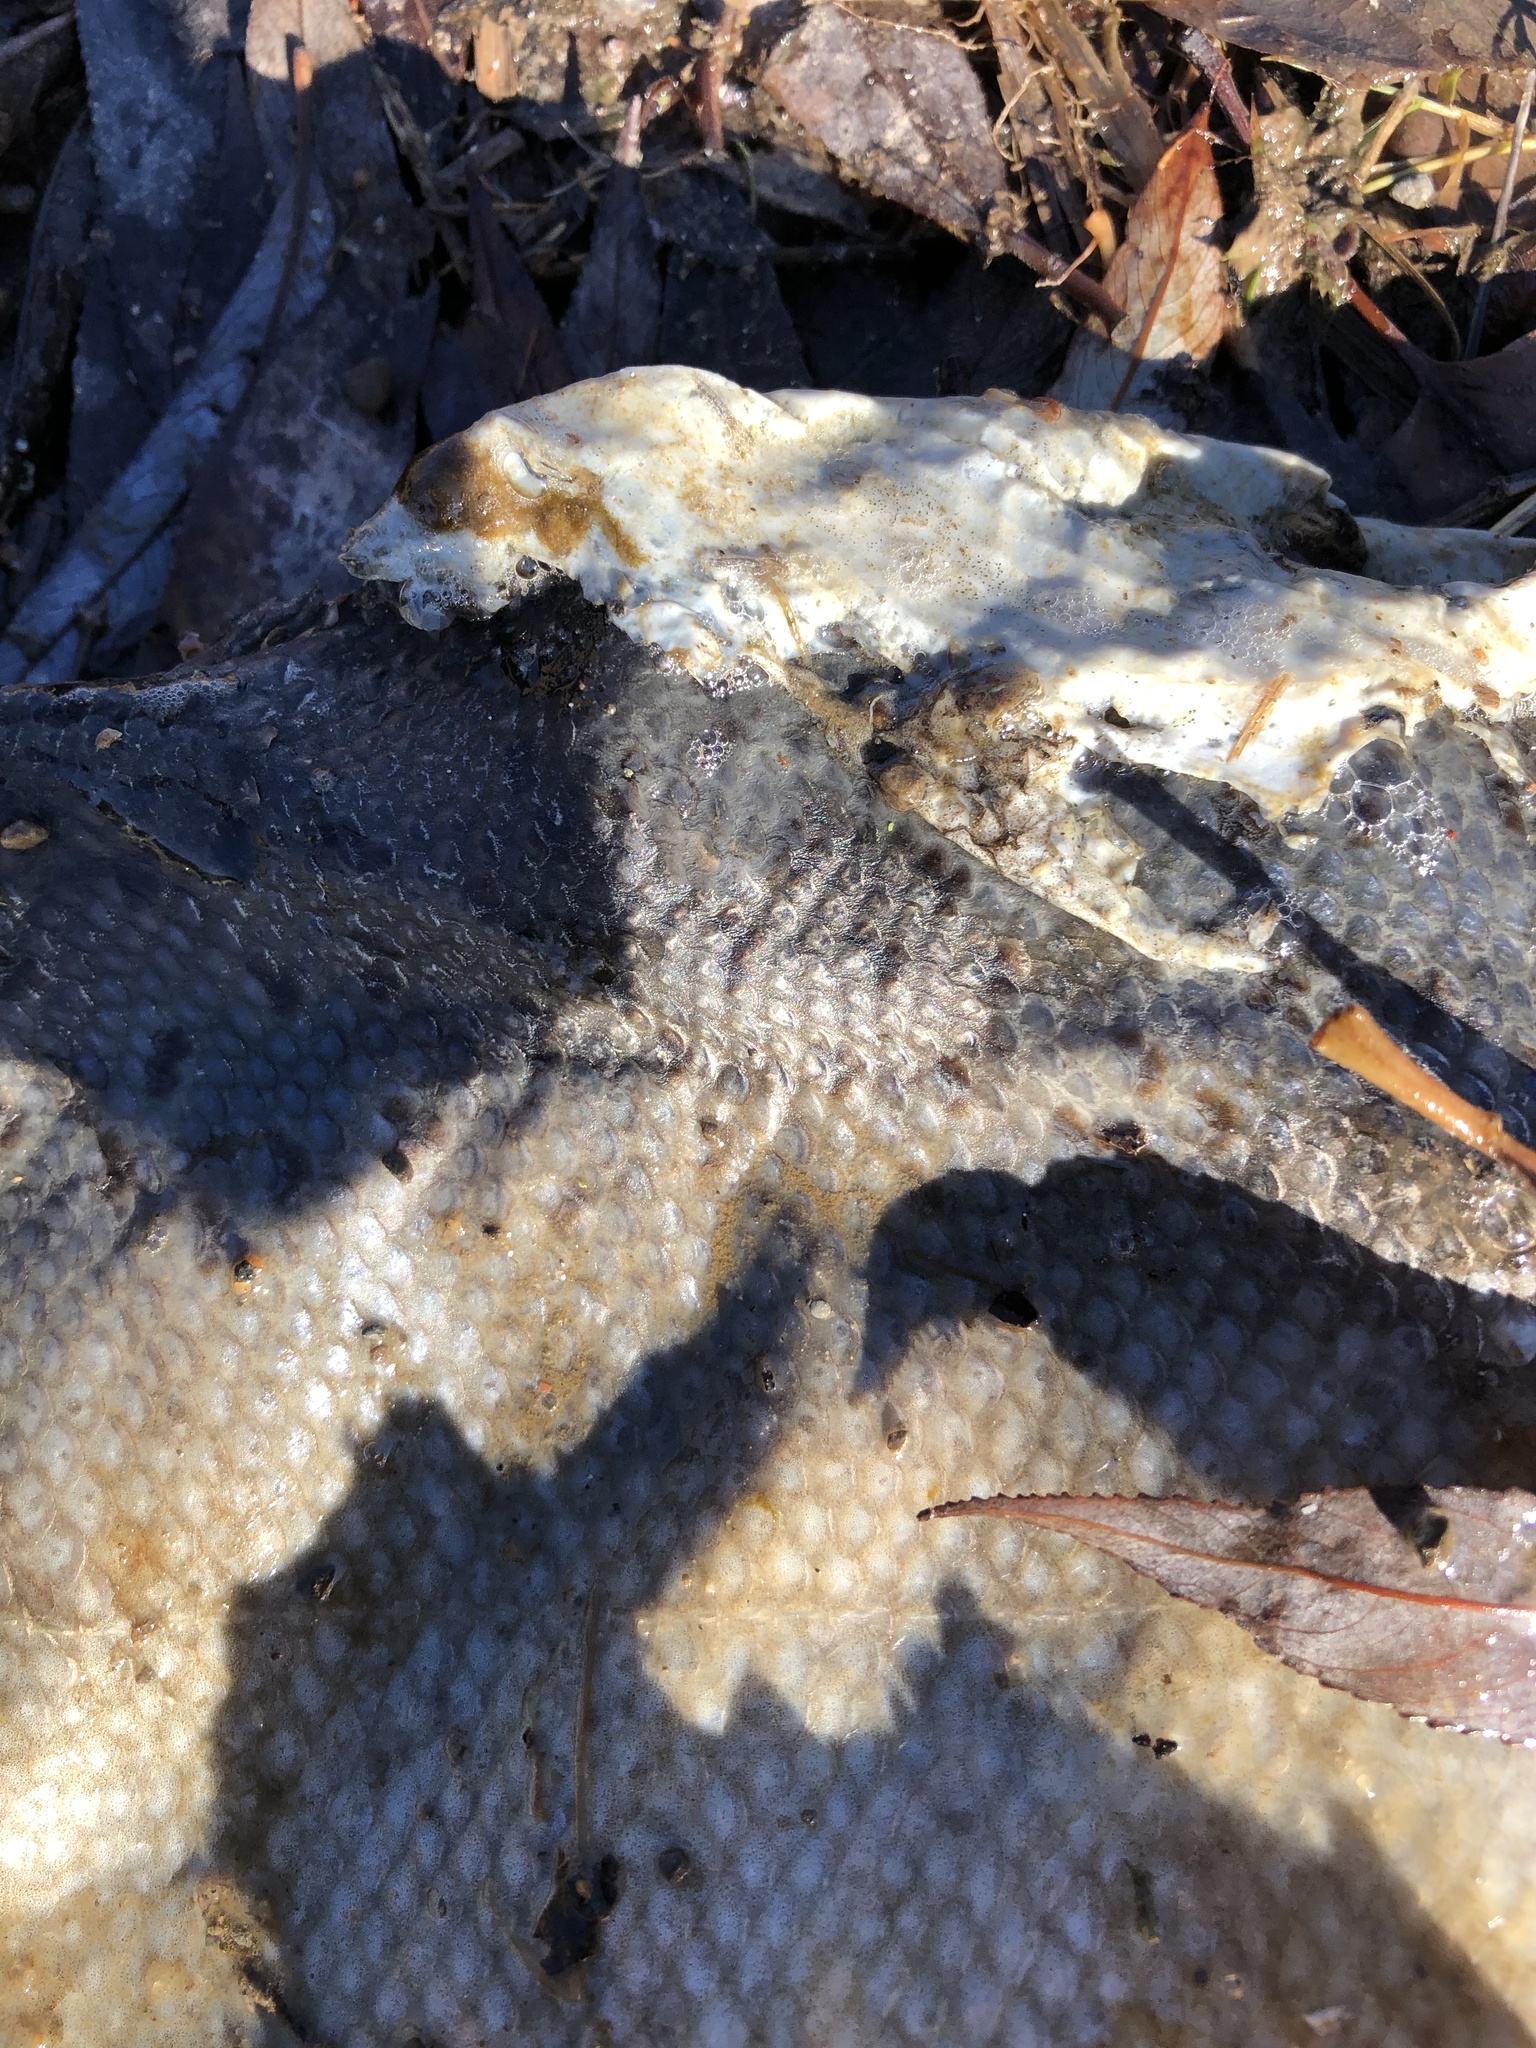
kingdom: Animalia
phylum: Chordata
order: Salmoniformes
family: Salmonidae
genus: Oncorhynchus
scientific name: Oncorhynchus tshawytscha
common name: Chinook salmon
